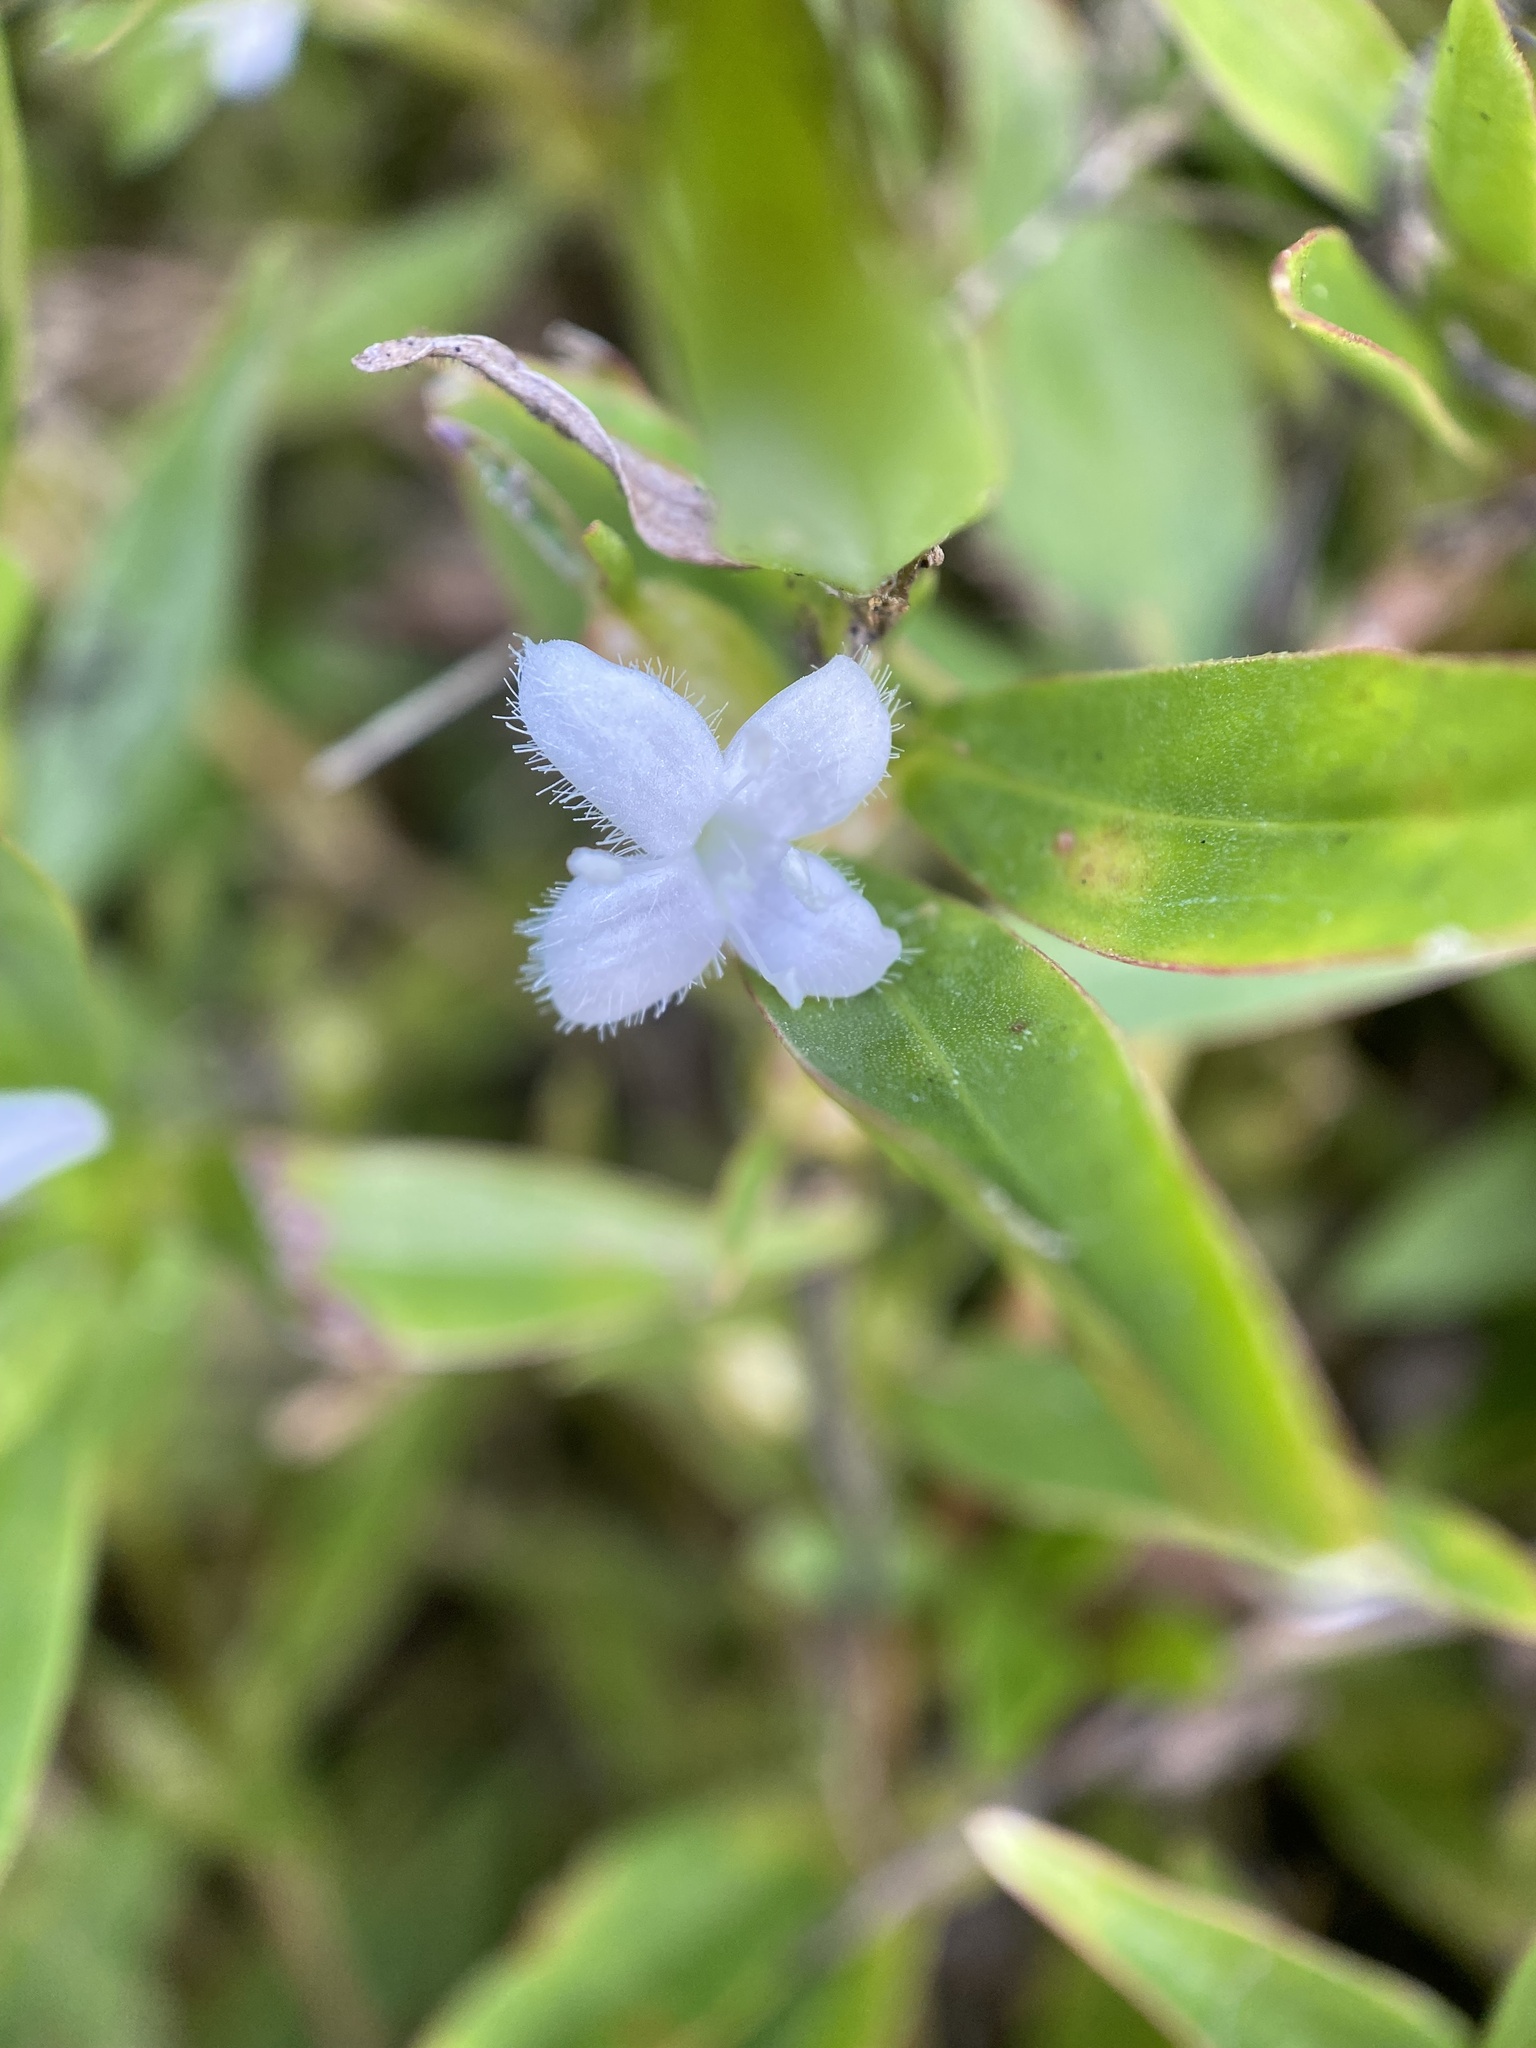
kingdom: Plantae
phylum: Tracheophyta
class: Magnoliopsida
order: Gentianales
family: Rubiaceae
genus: Diodia
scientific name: Diodia virginiana
